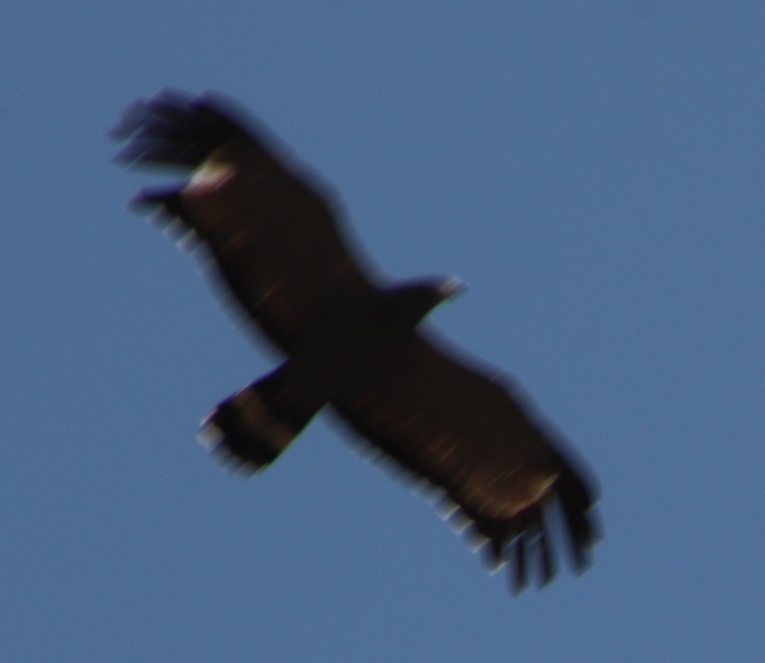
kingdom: Animalia
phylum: Chordata
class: Aves
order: Accipitriformes
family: Accipitridae
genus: Polyboroides
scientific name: Polyboroides typus
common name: African harrier-hawk
